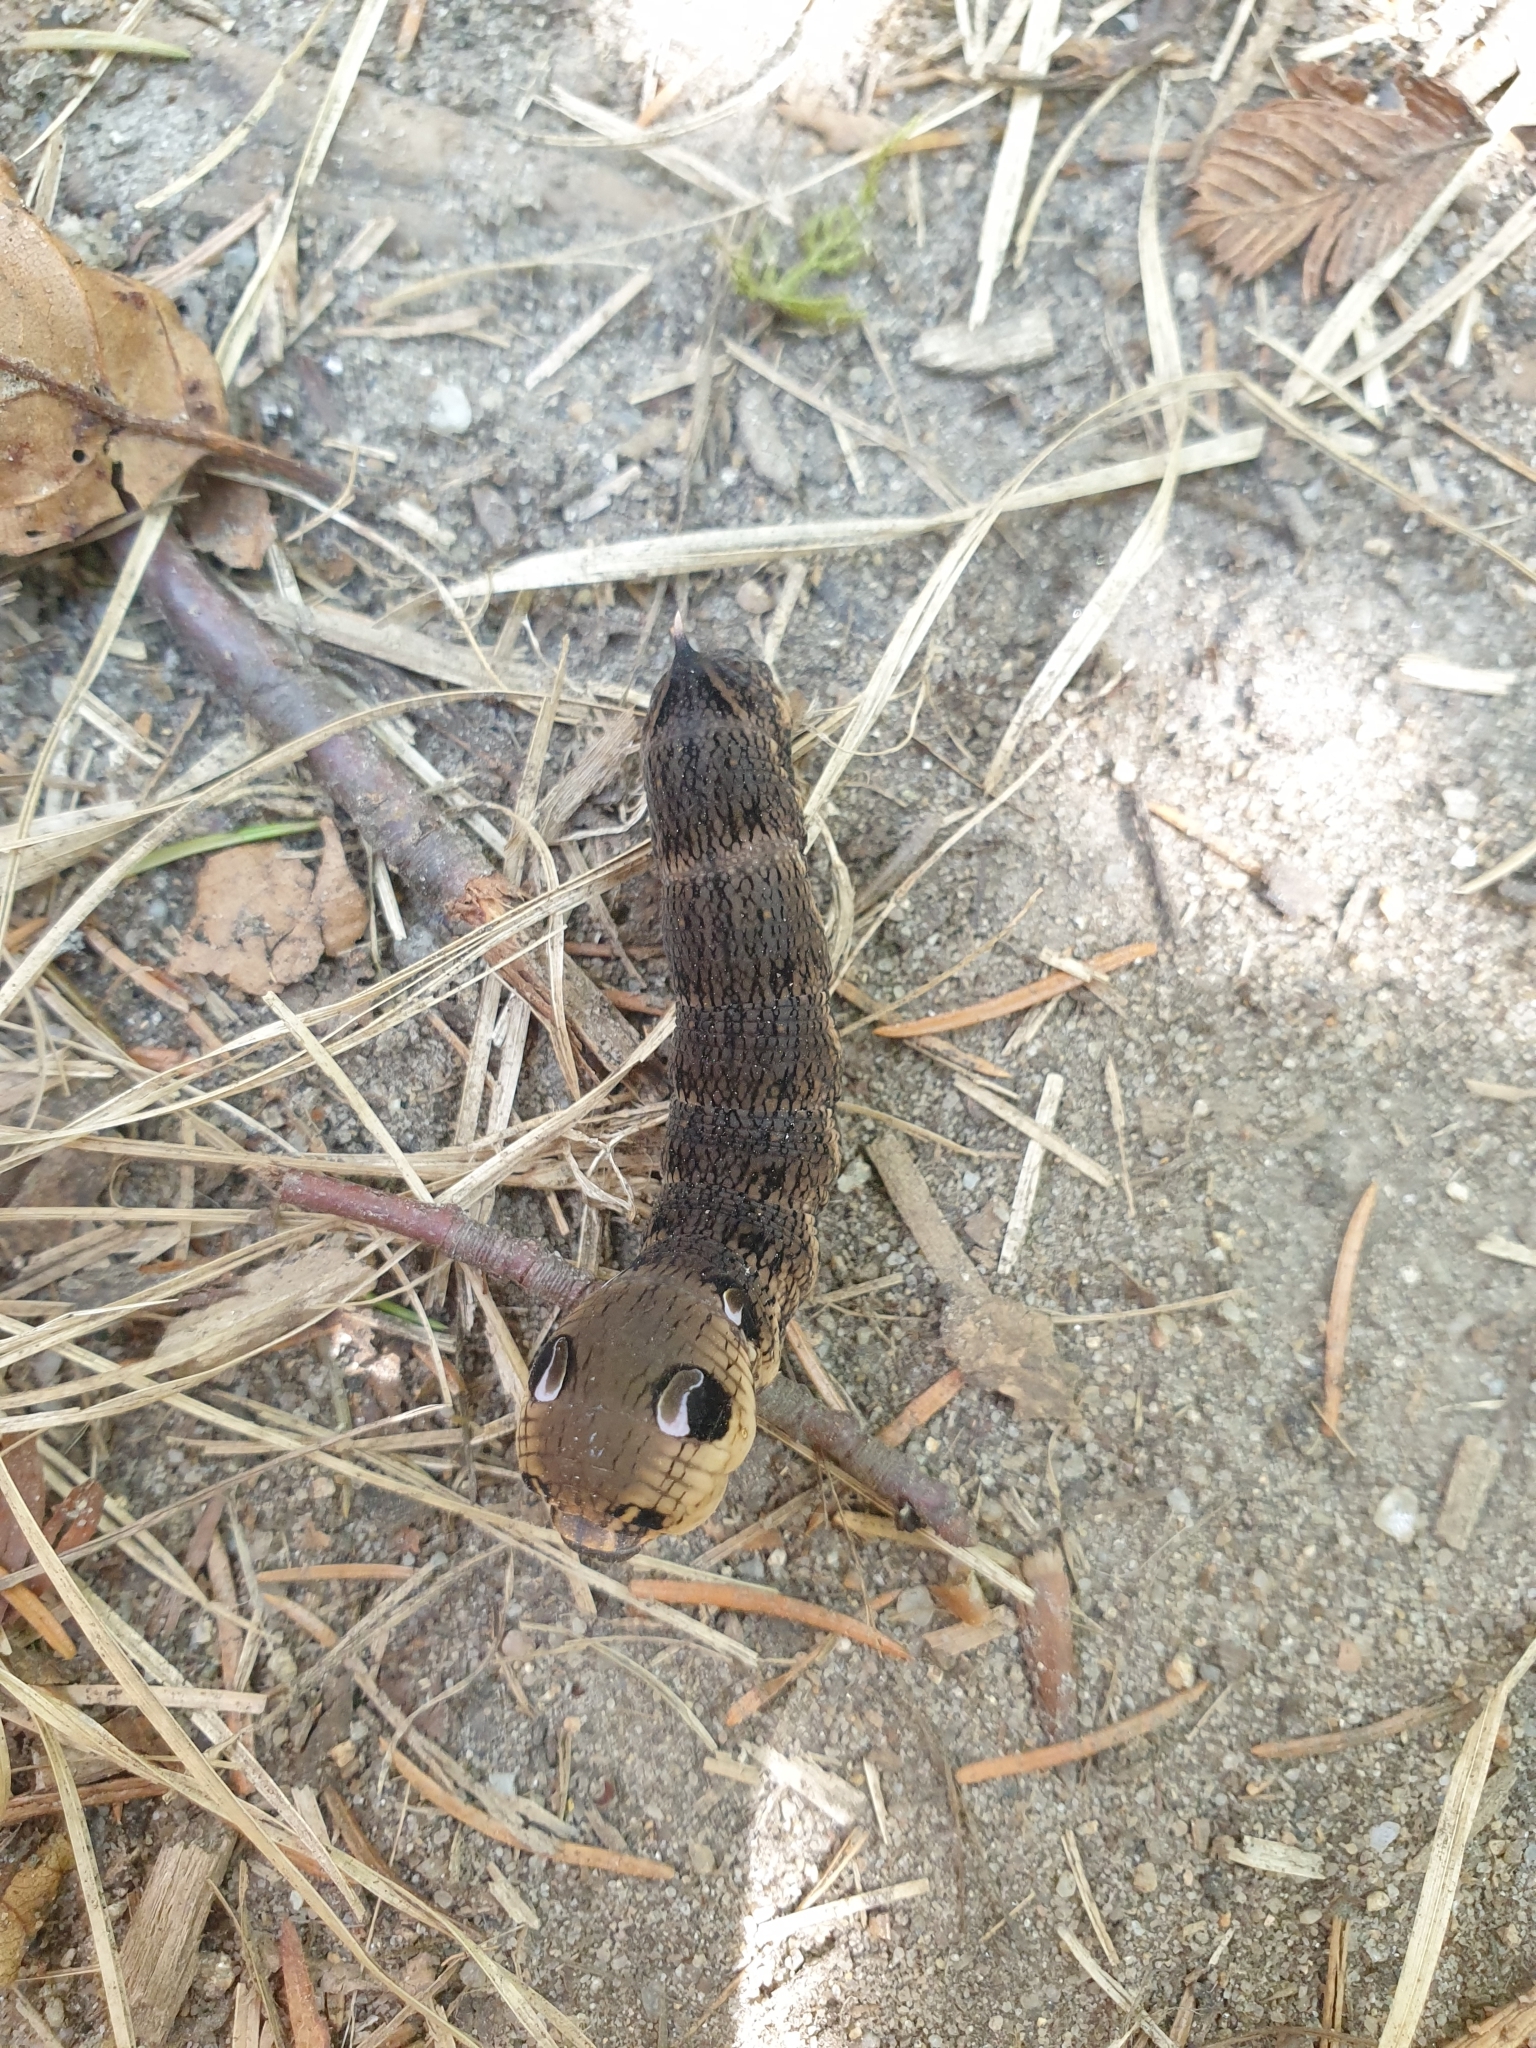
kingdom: Animalia
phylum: Arthropoda
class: Insecta
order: Lepidoptera
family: Sphingidae
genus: Deilephila
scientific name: Deilephila elpenor
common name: Elephant hawk-moth
